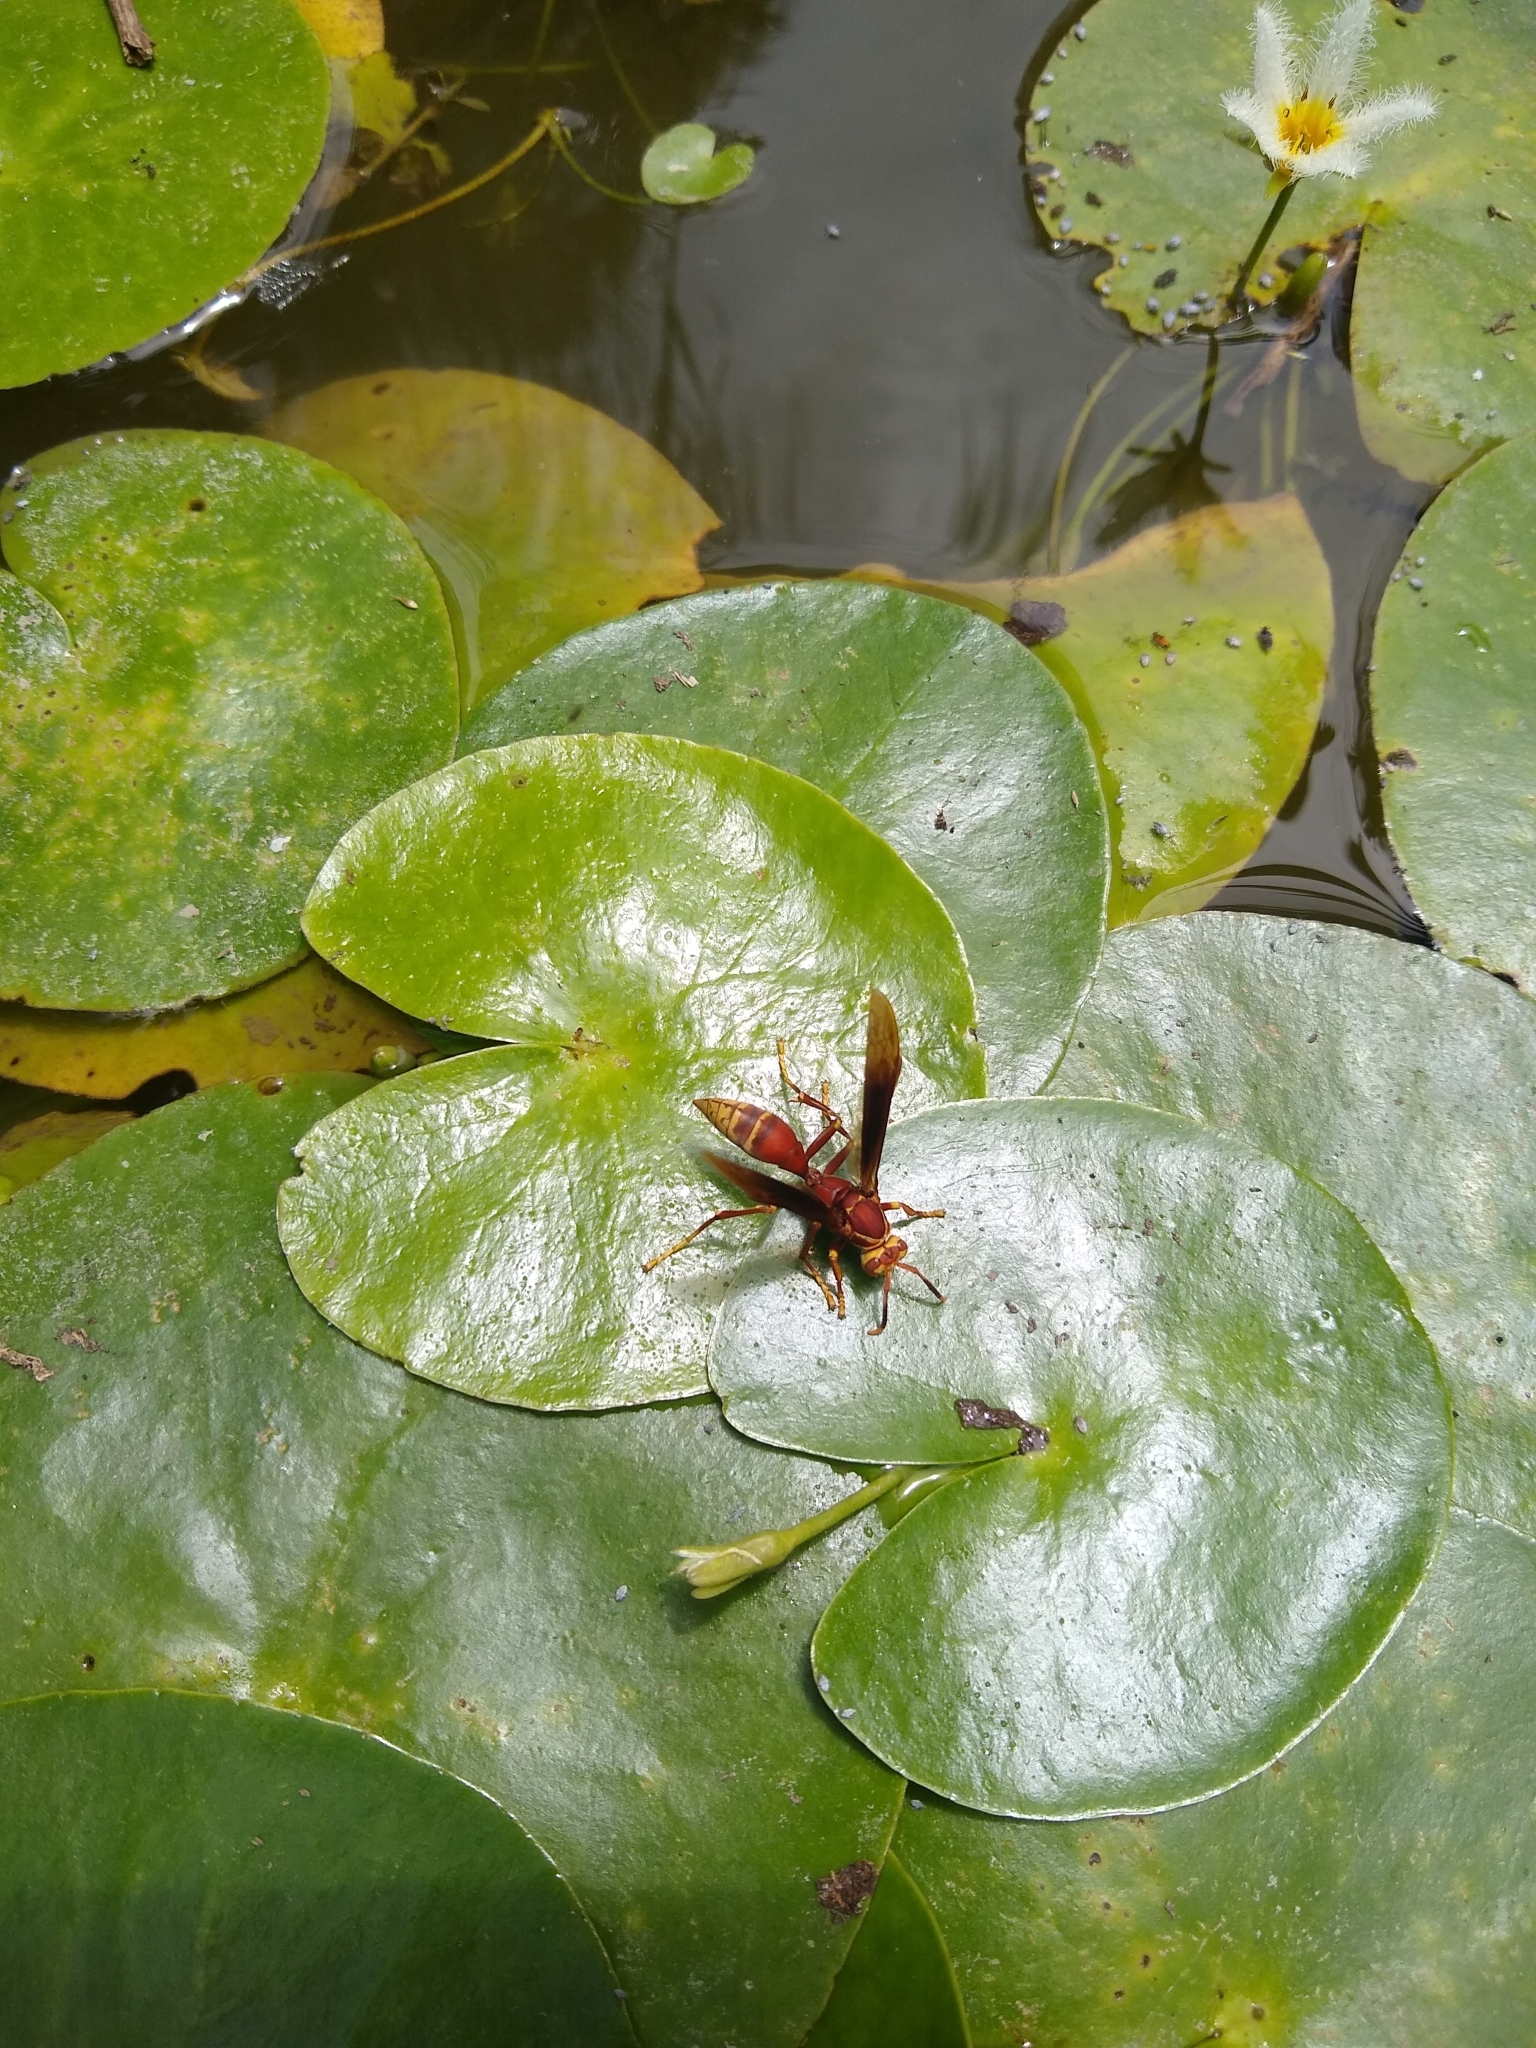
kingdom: Animalia
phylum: Arthropoda
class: Insecta
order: Hymenoptera
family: Eumenidae
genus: Polistes
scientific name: Polistes cavapyta
